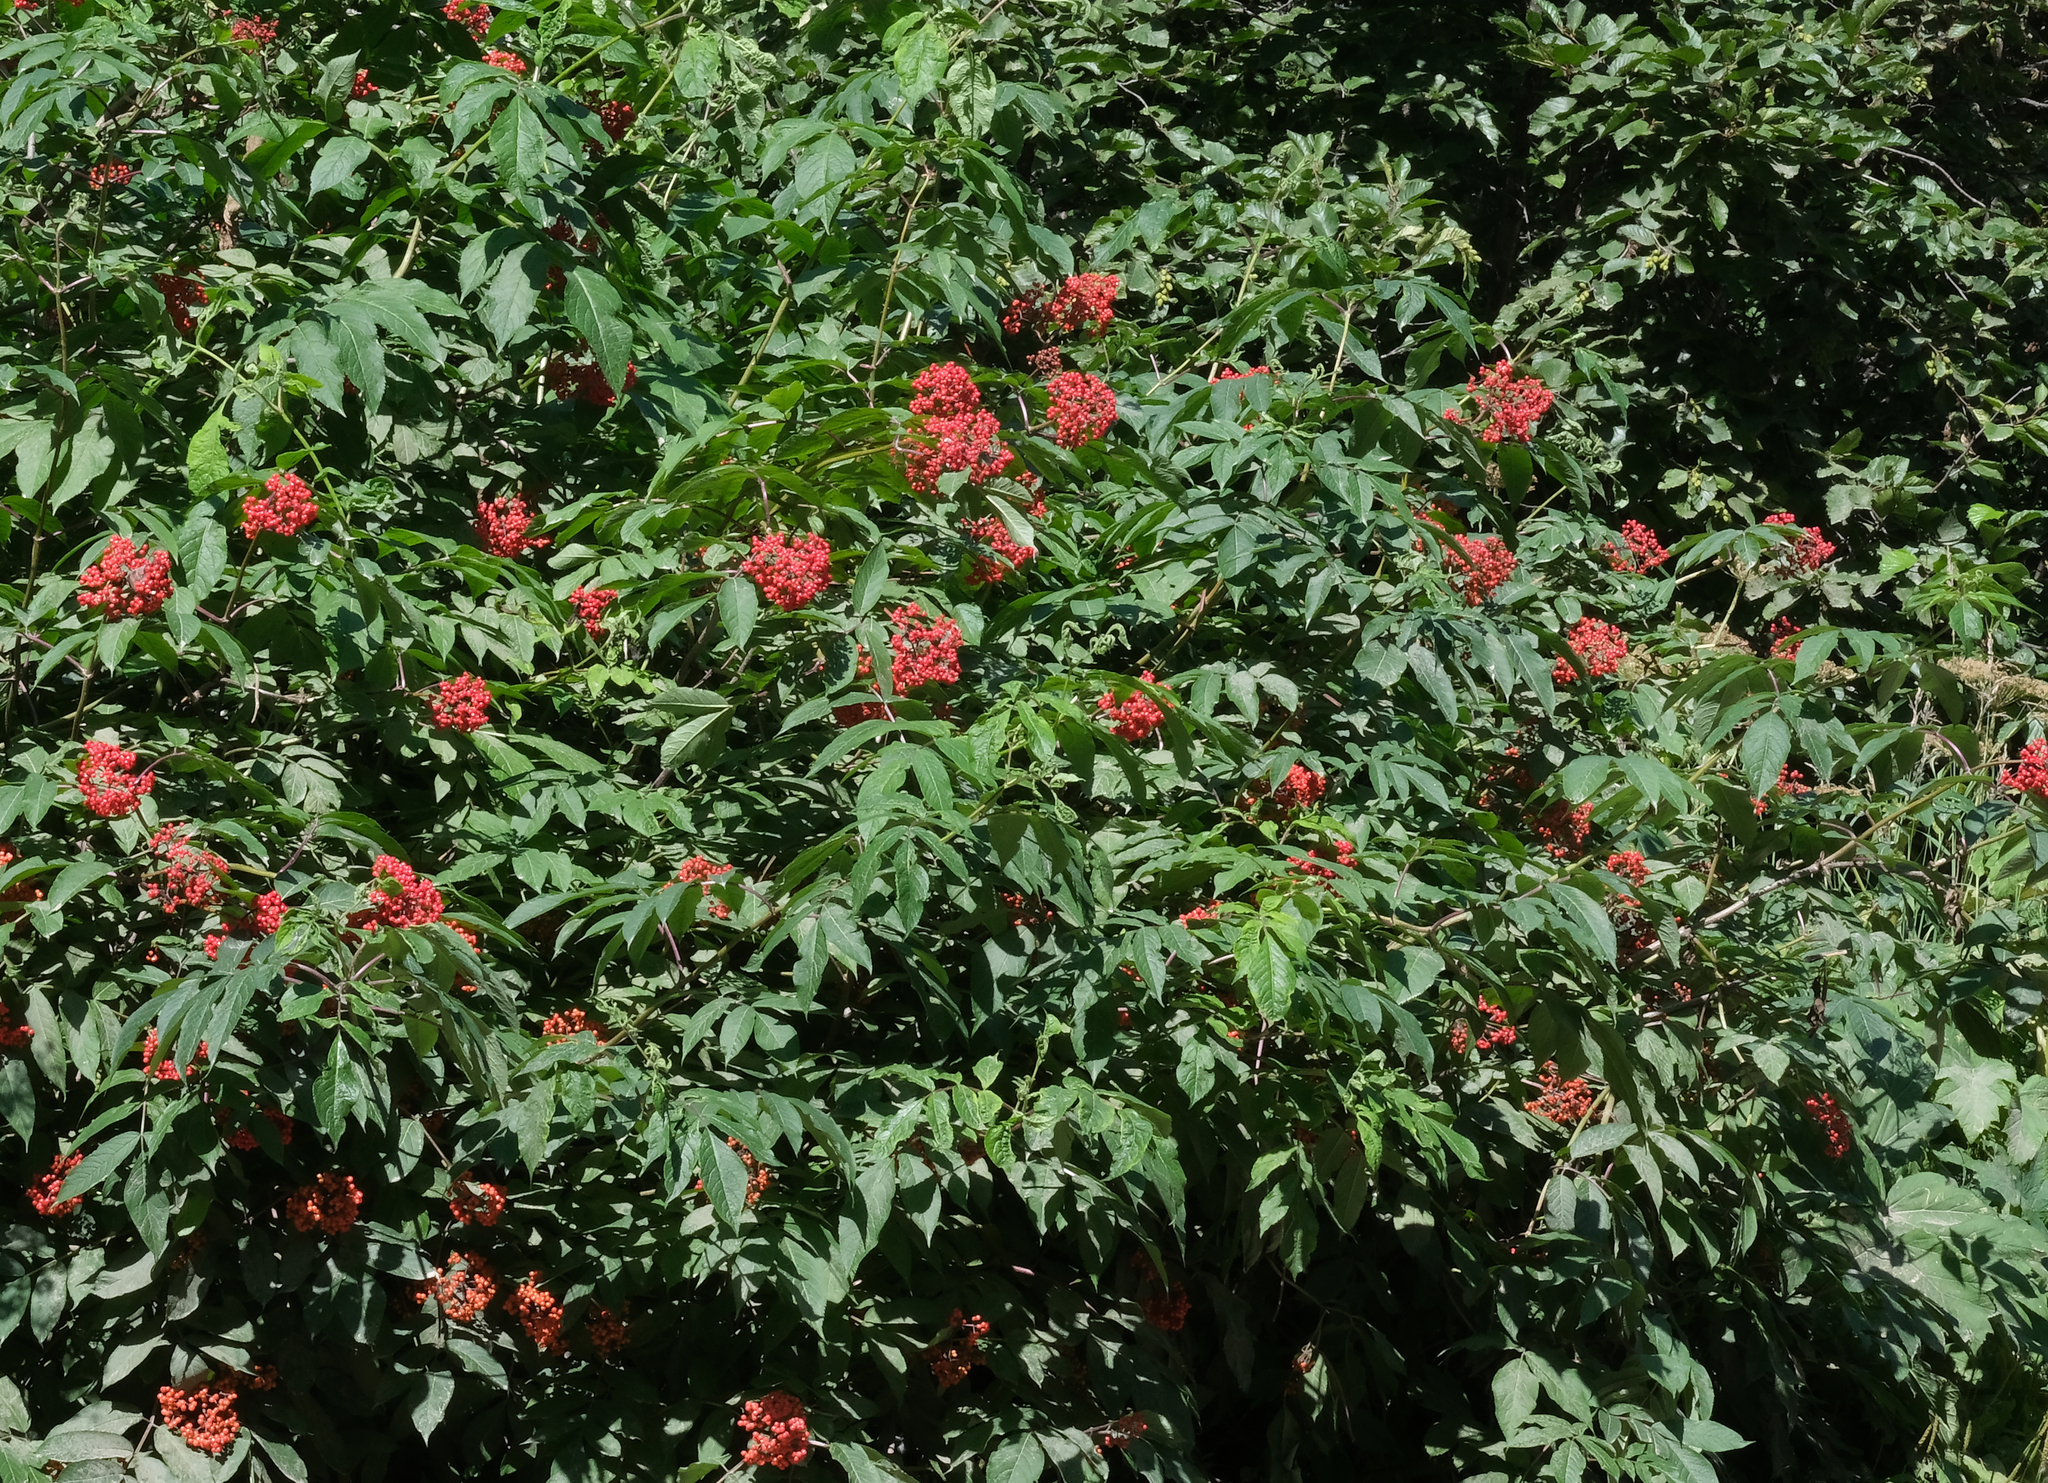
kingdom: Plantae
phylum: Tracheophyta
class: Magnoliopsida
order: Dipsacales
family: Viburnaceae
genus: Sambucus
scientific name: Sambucus racemosa
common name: Red-berried elder
